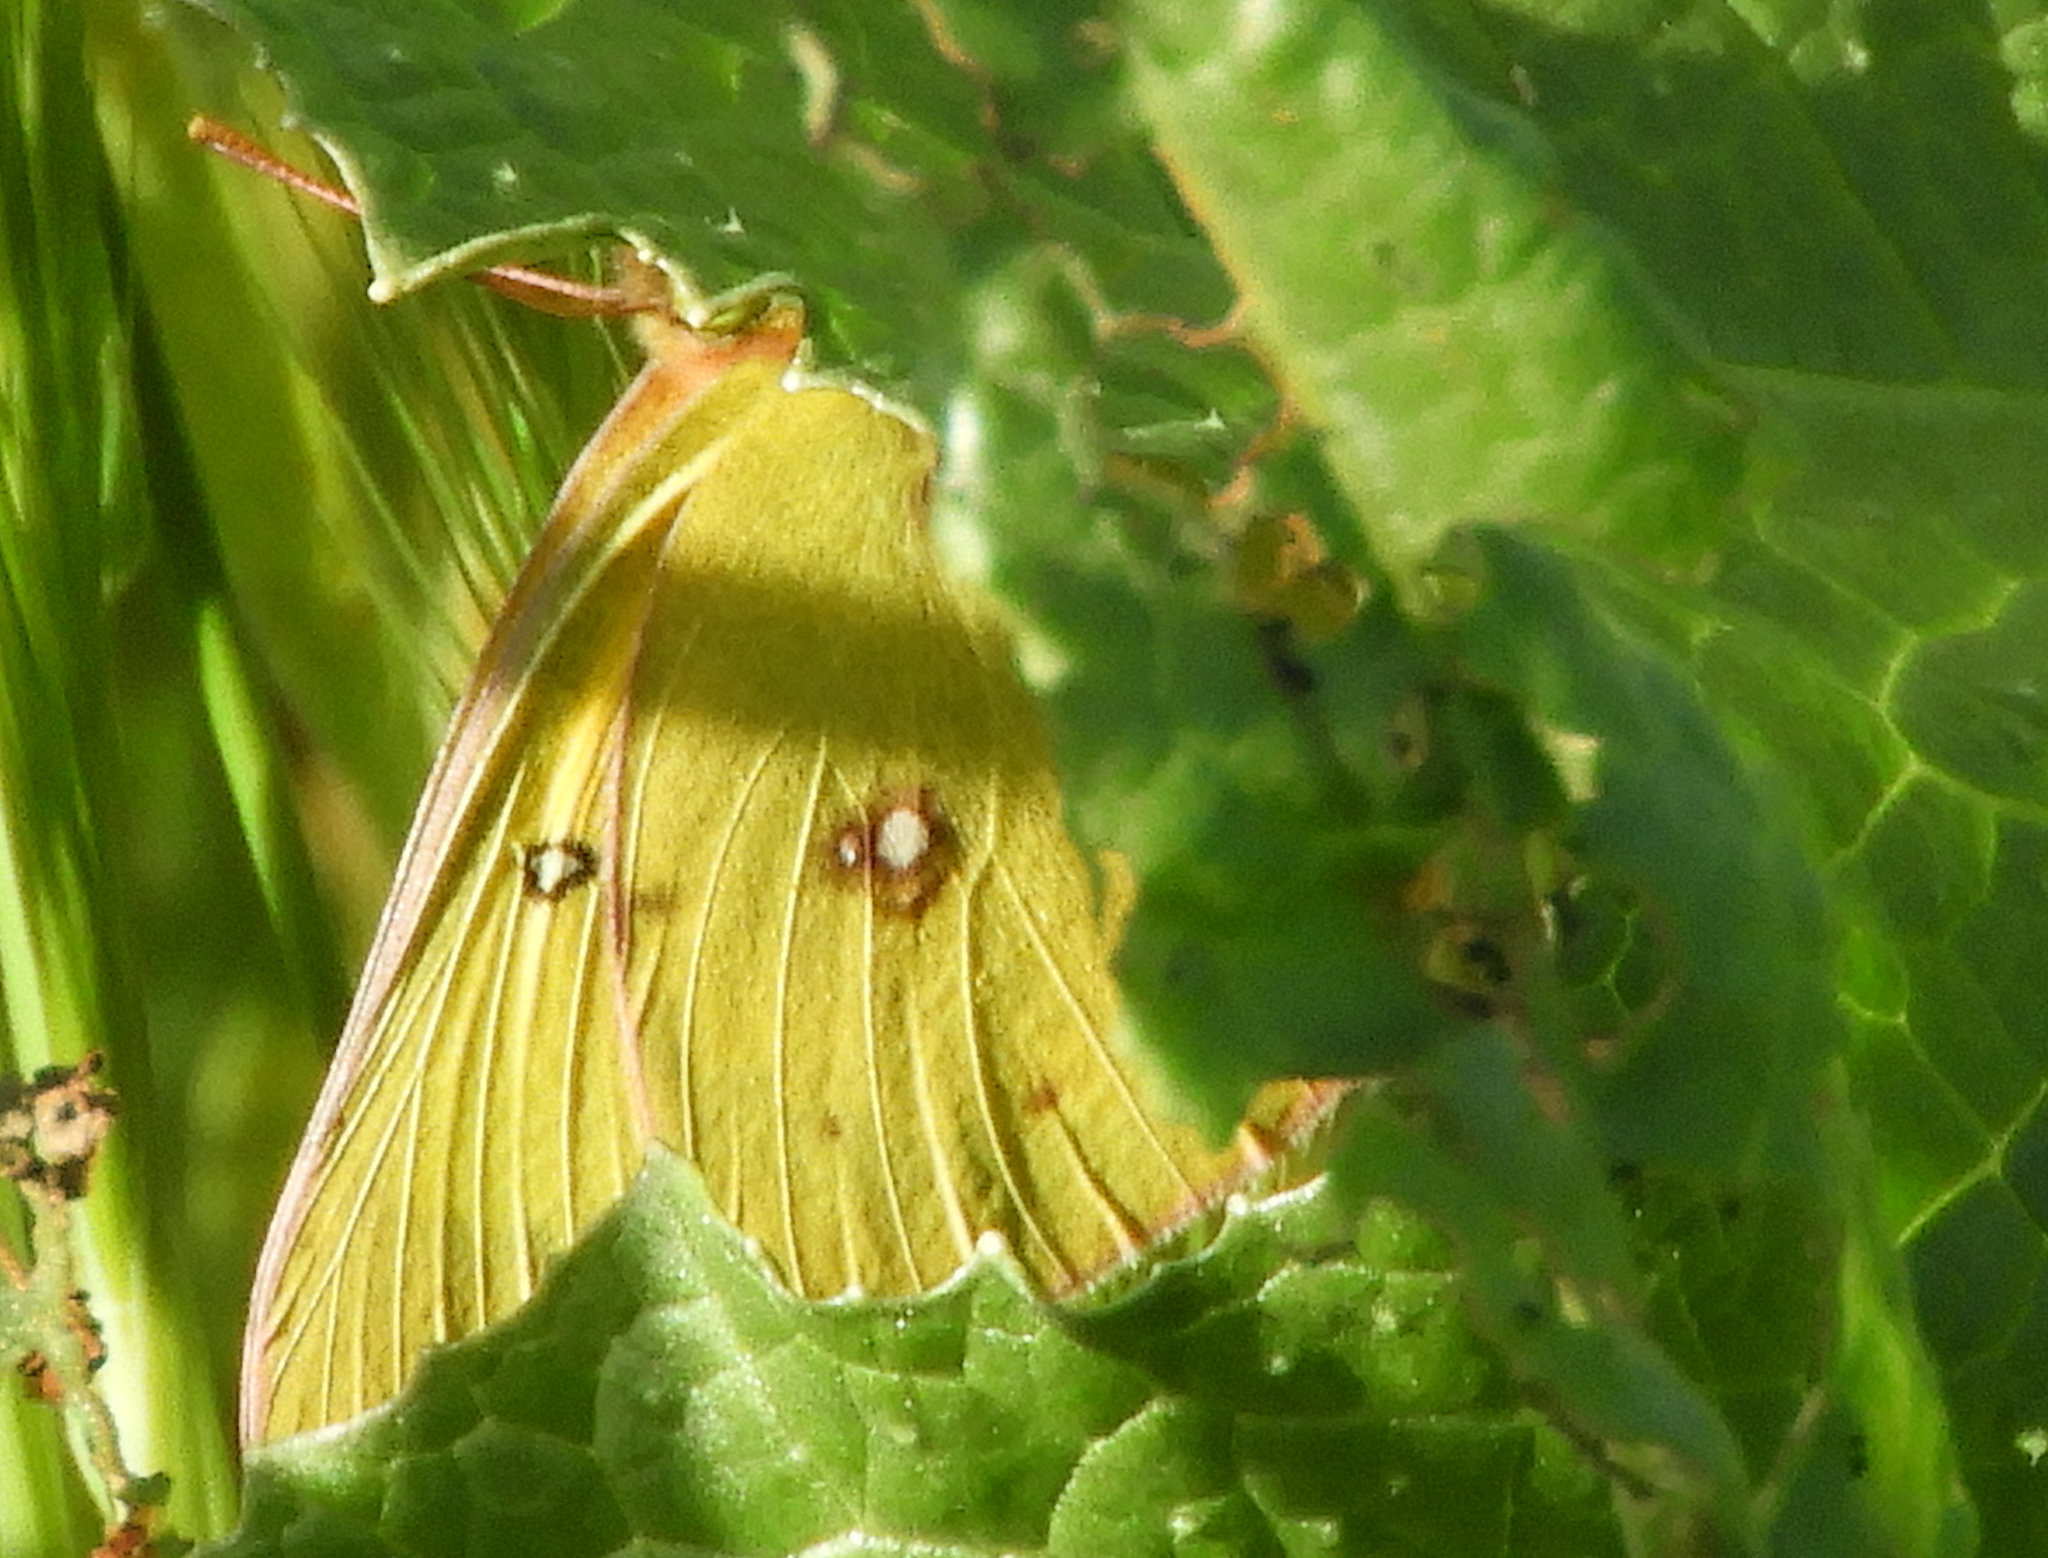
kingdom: Animalia
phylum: Arthropoda
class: Insecta
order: Lepidoptera
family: Pieridae
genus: Colias
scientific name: Colias eurytheme
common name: Alfalfa butterfly
